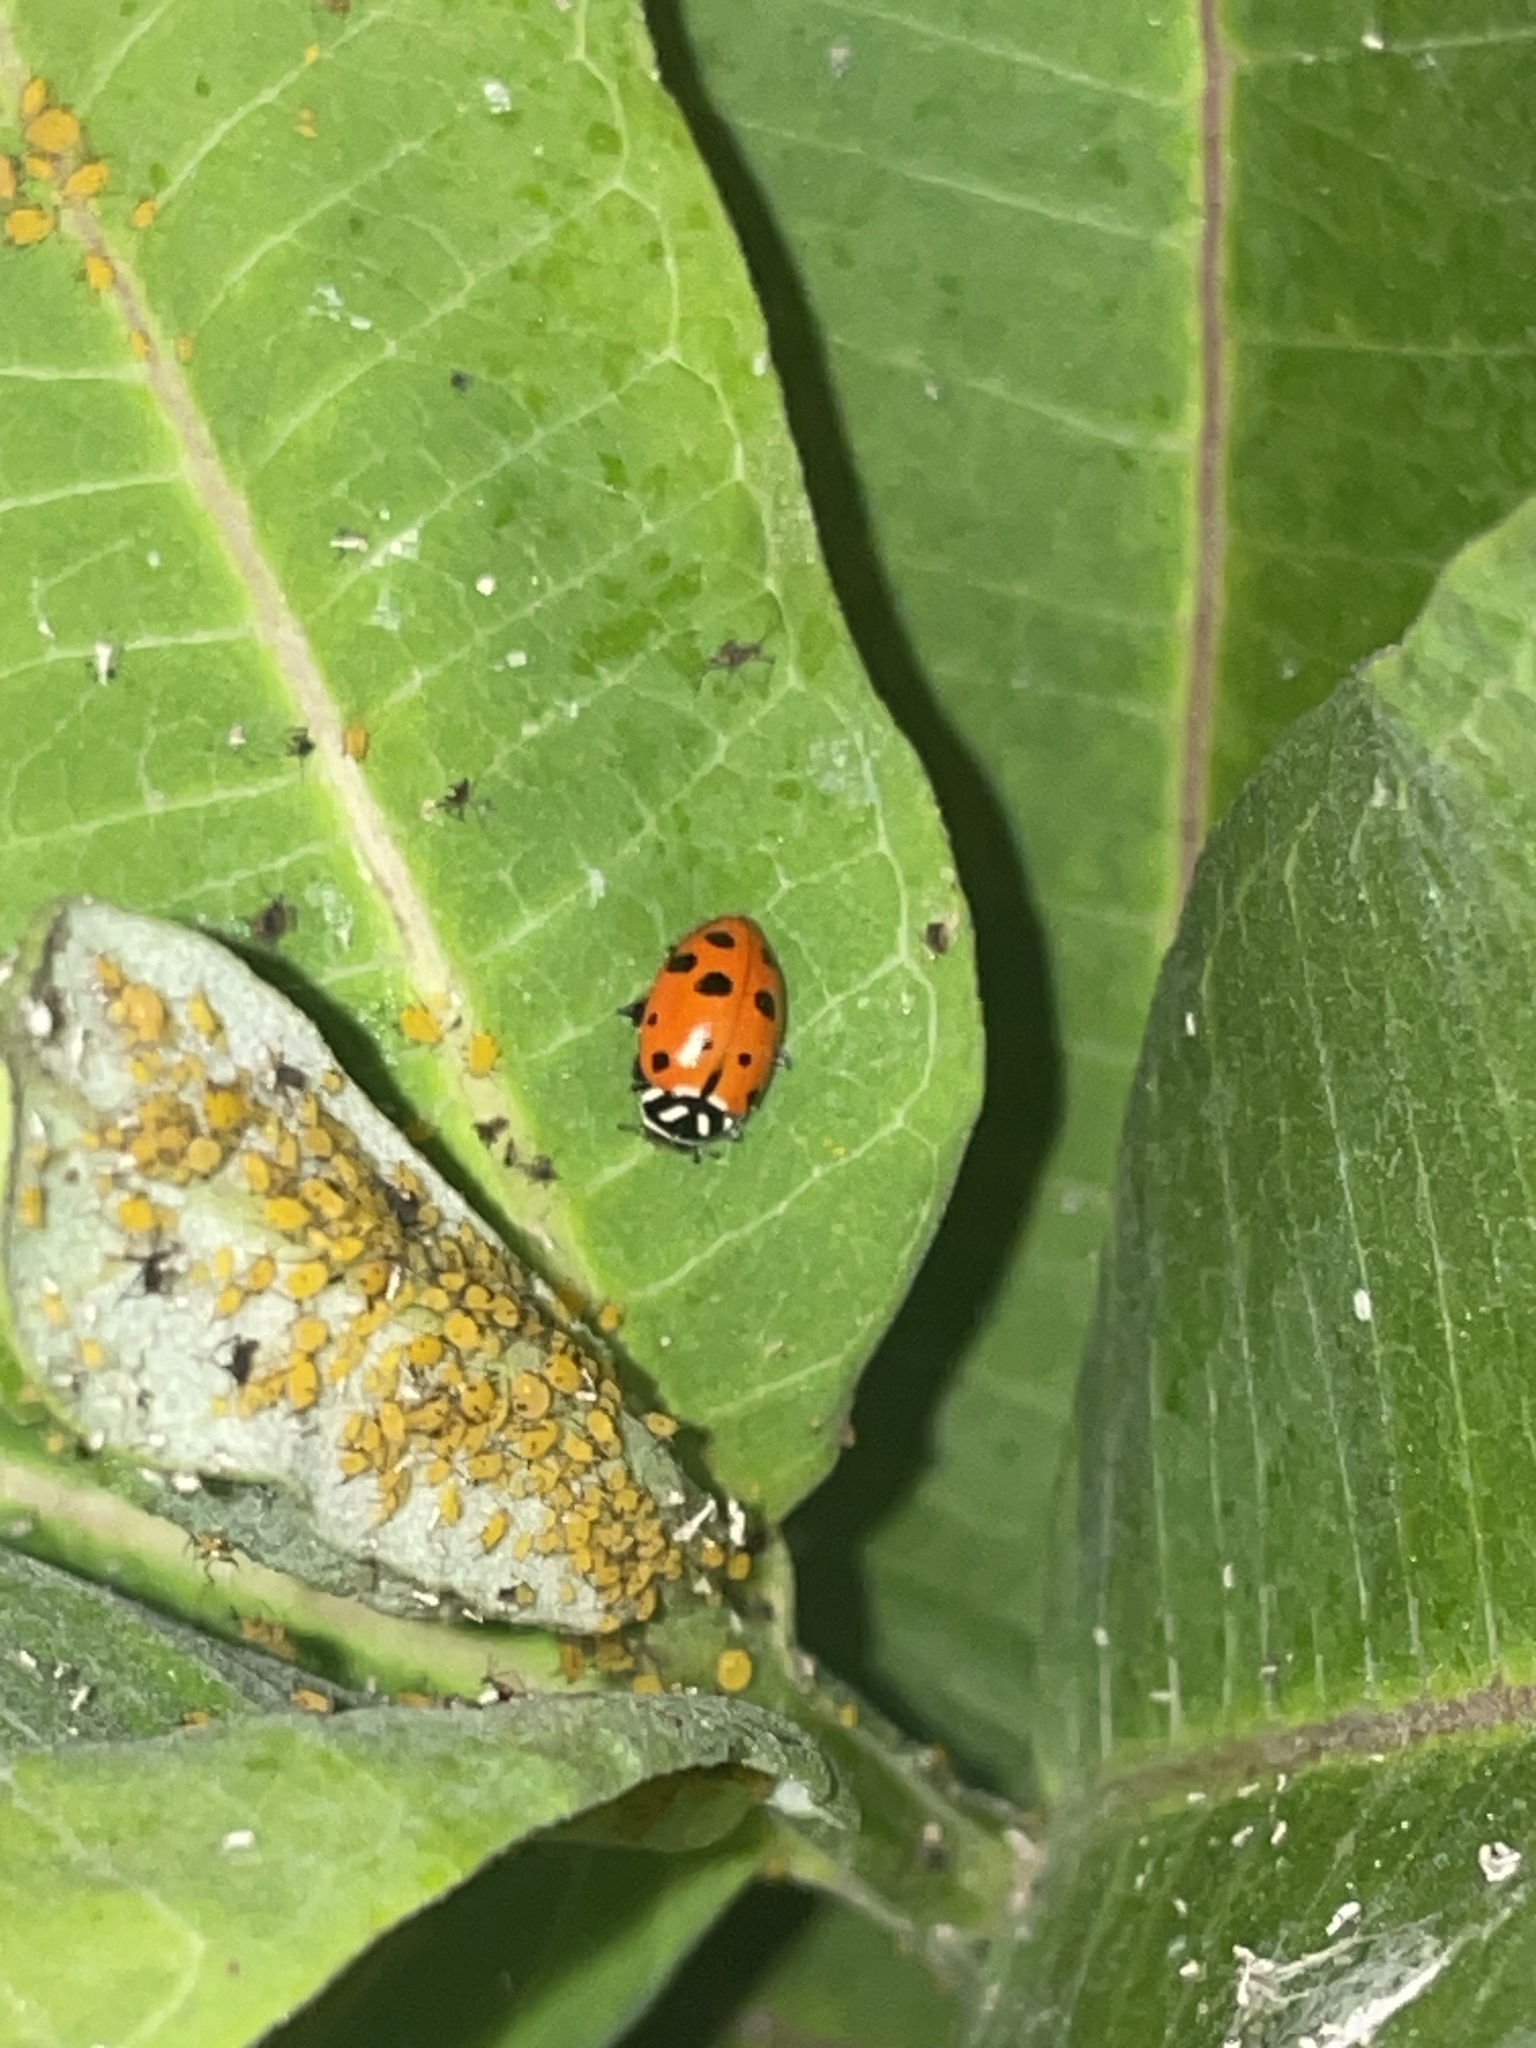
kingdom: Animalia
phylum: Arthropoda
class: Insecta
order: Coleoptera
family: Coccinellidae
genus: Hippodamia
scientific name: Hippodamia convergens
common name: Convergent lady beetle
